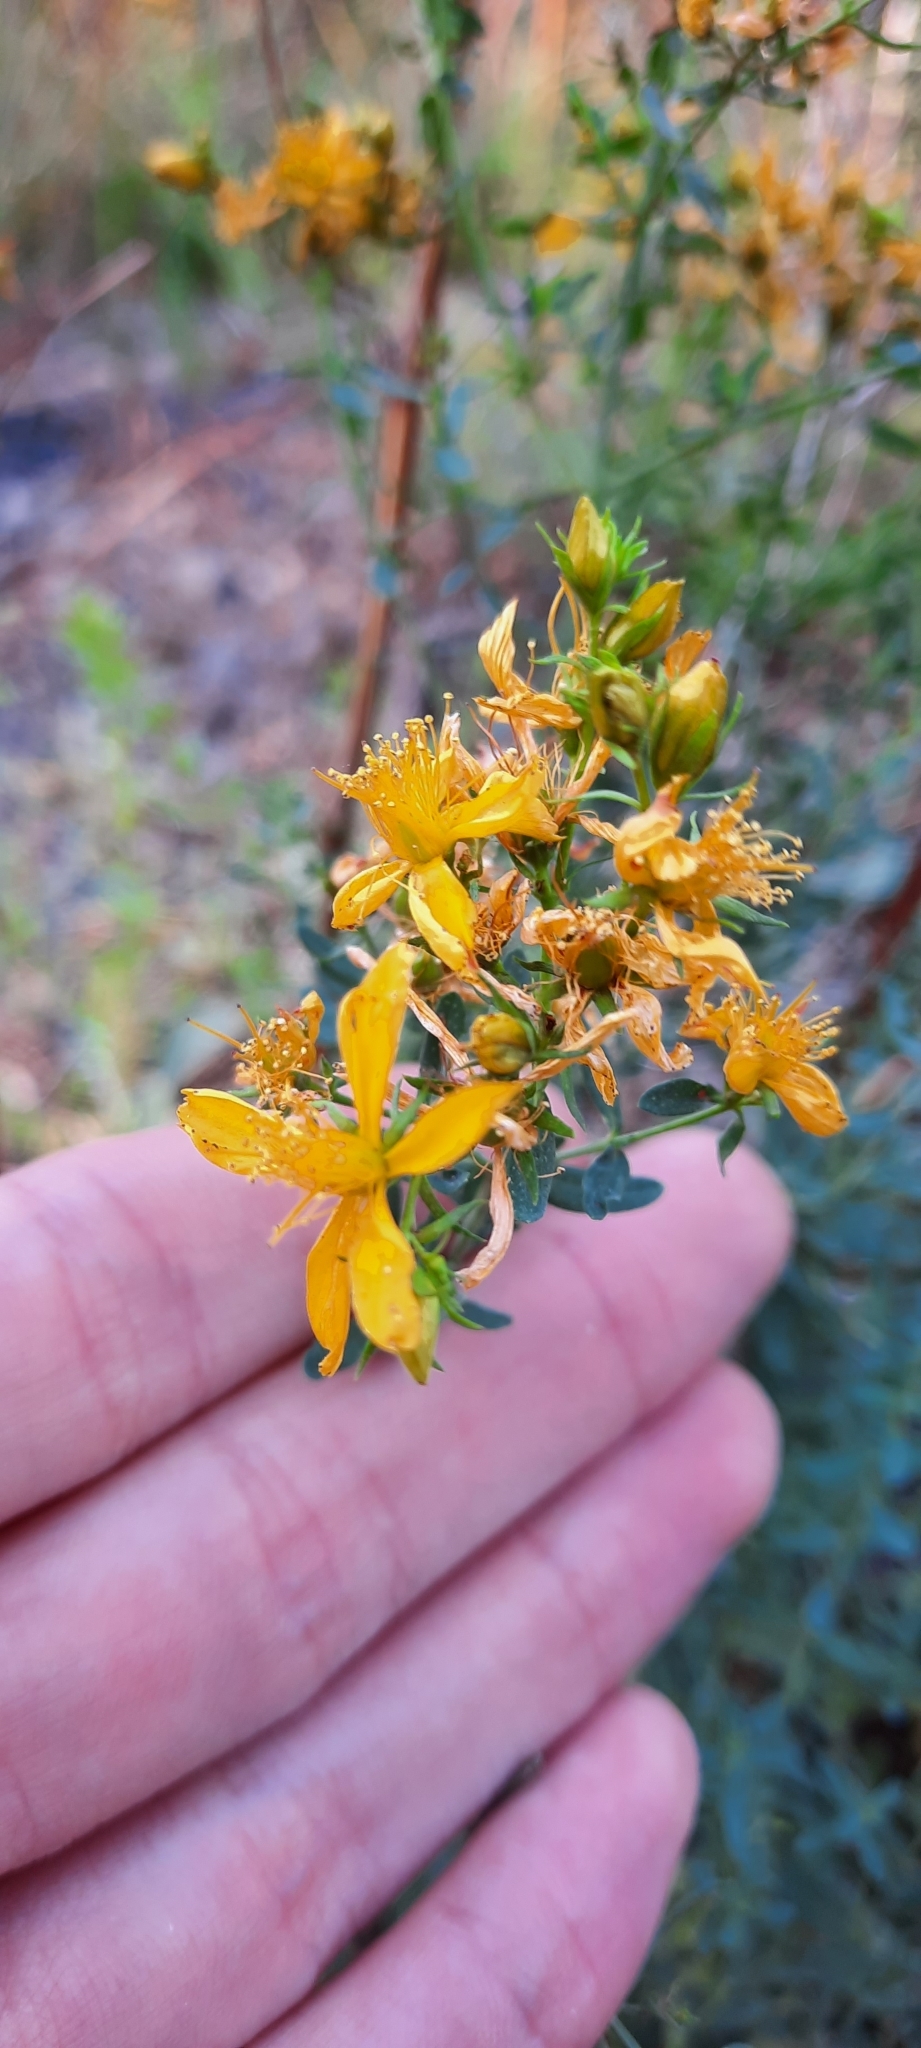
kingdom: Plantae
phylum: Tracheophyta
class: Magnoliopsida
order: Malpighiales
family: Hypericaceae
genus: Hypericum
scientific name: Hypericum perforatum
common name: Common st. johnswort
